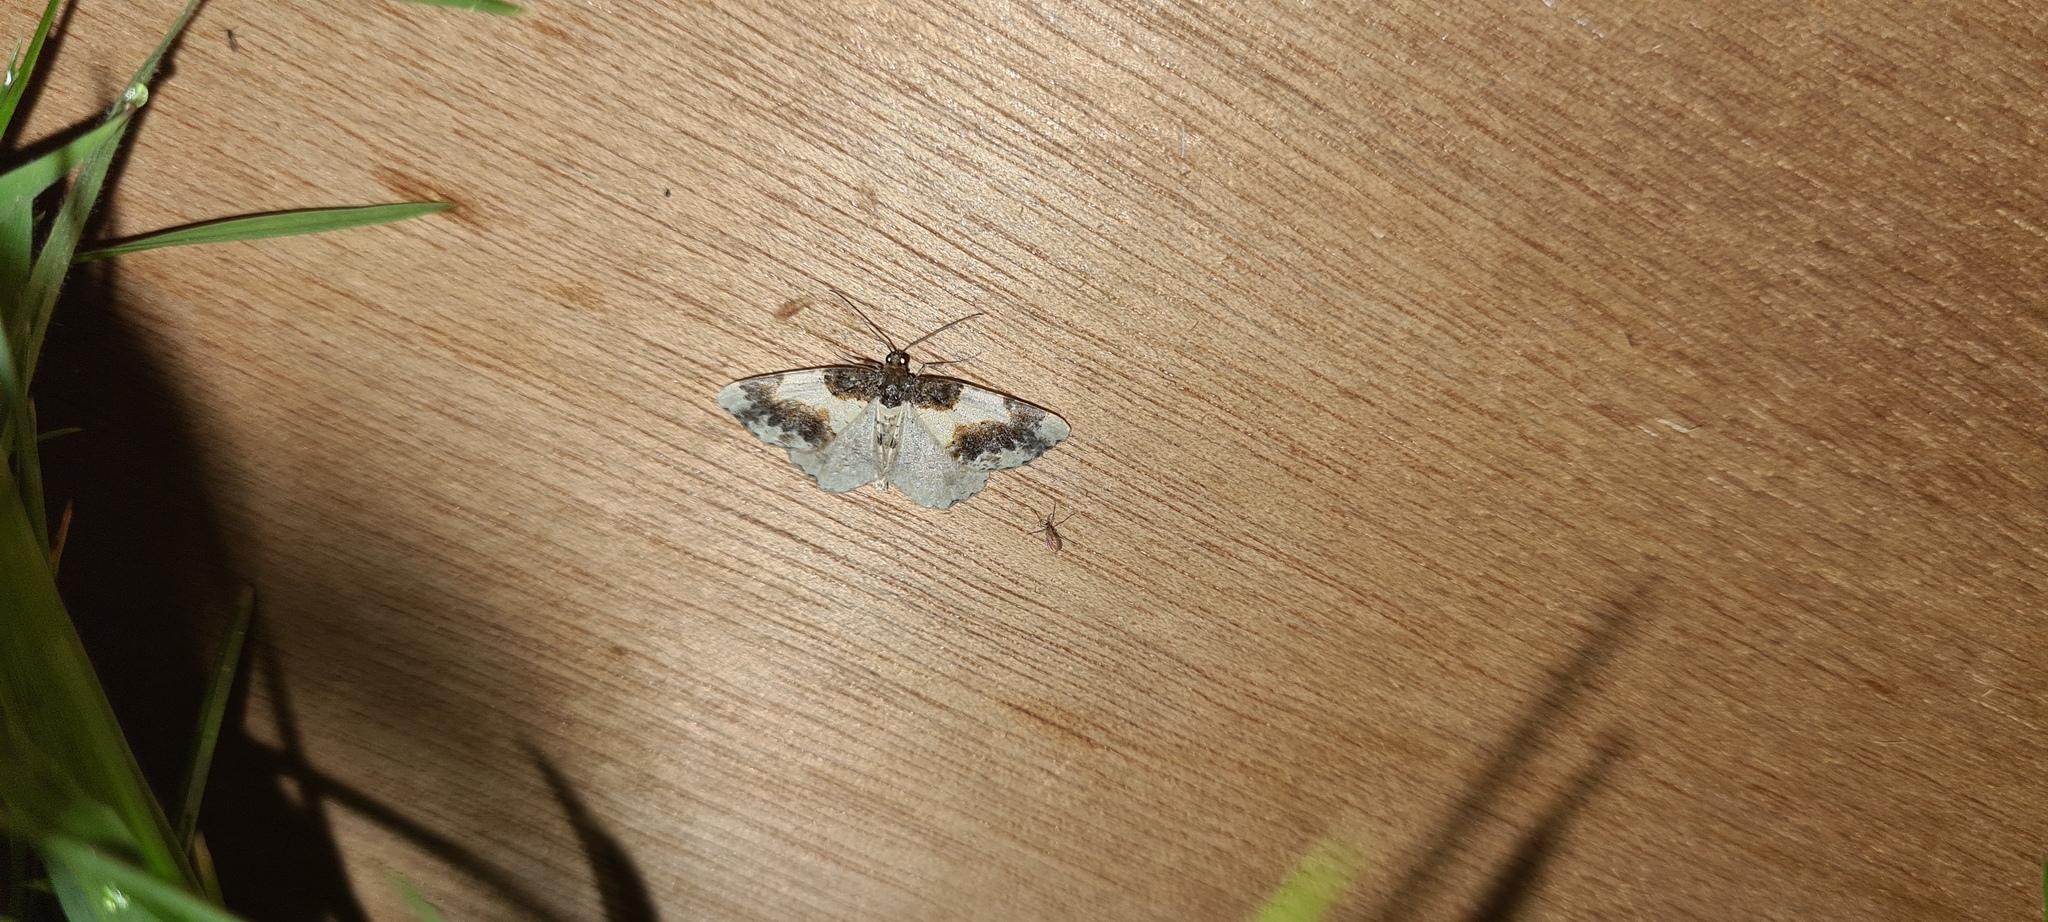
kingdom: Animalia
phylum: Arthropoda
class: Insecta
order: Lepidoptera
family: Geometridae
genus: Ligdia
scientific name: Ligdia adustata
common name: Scorched carpet
